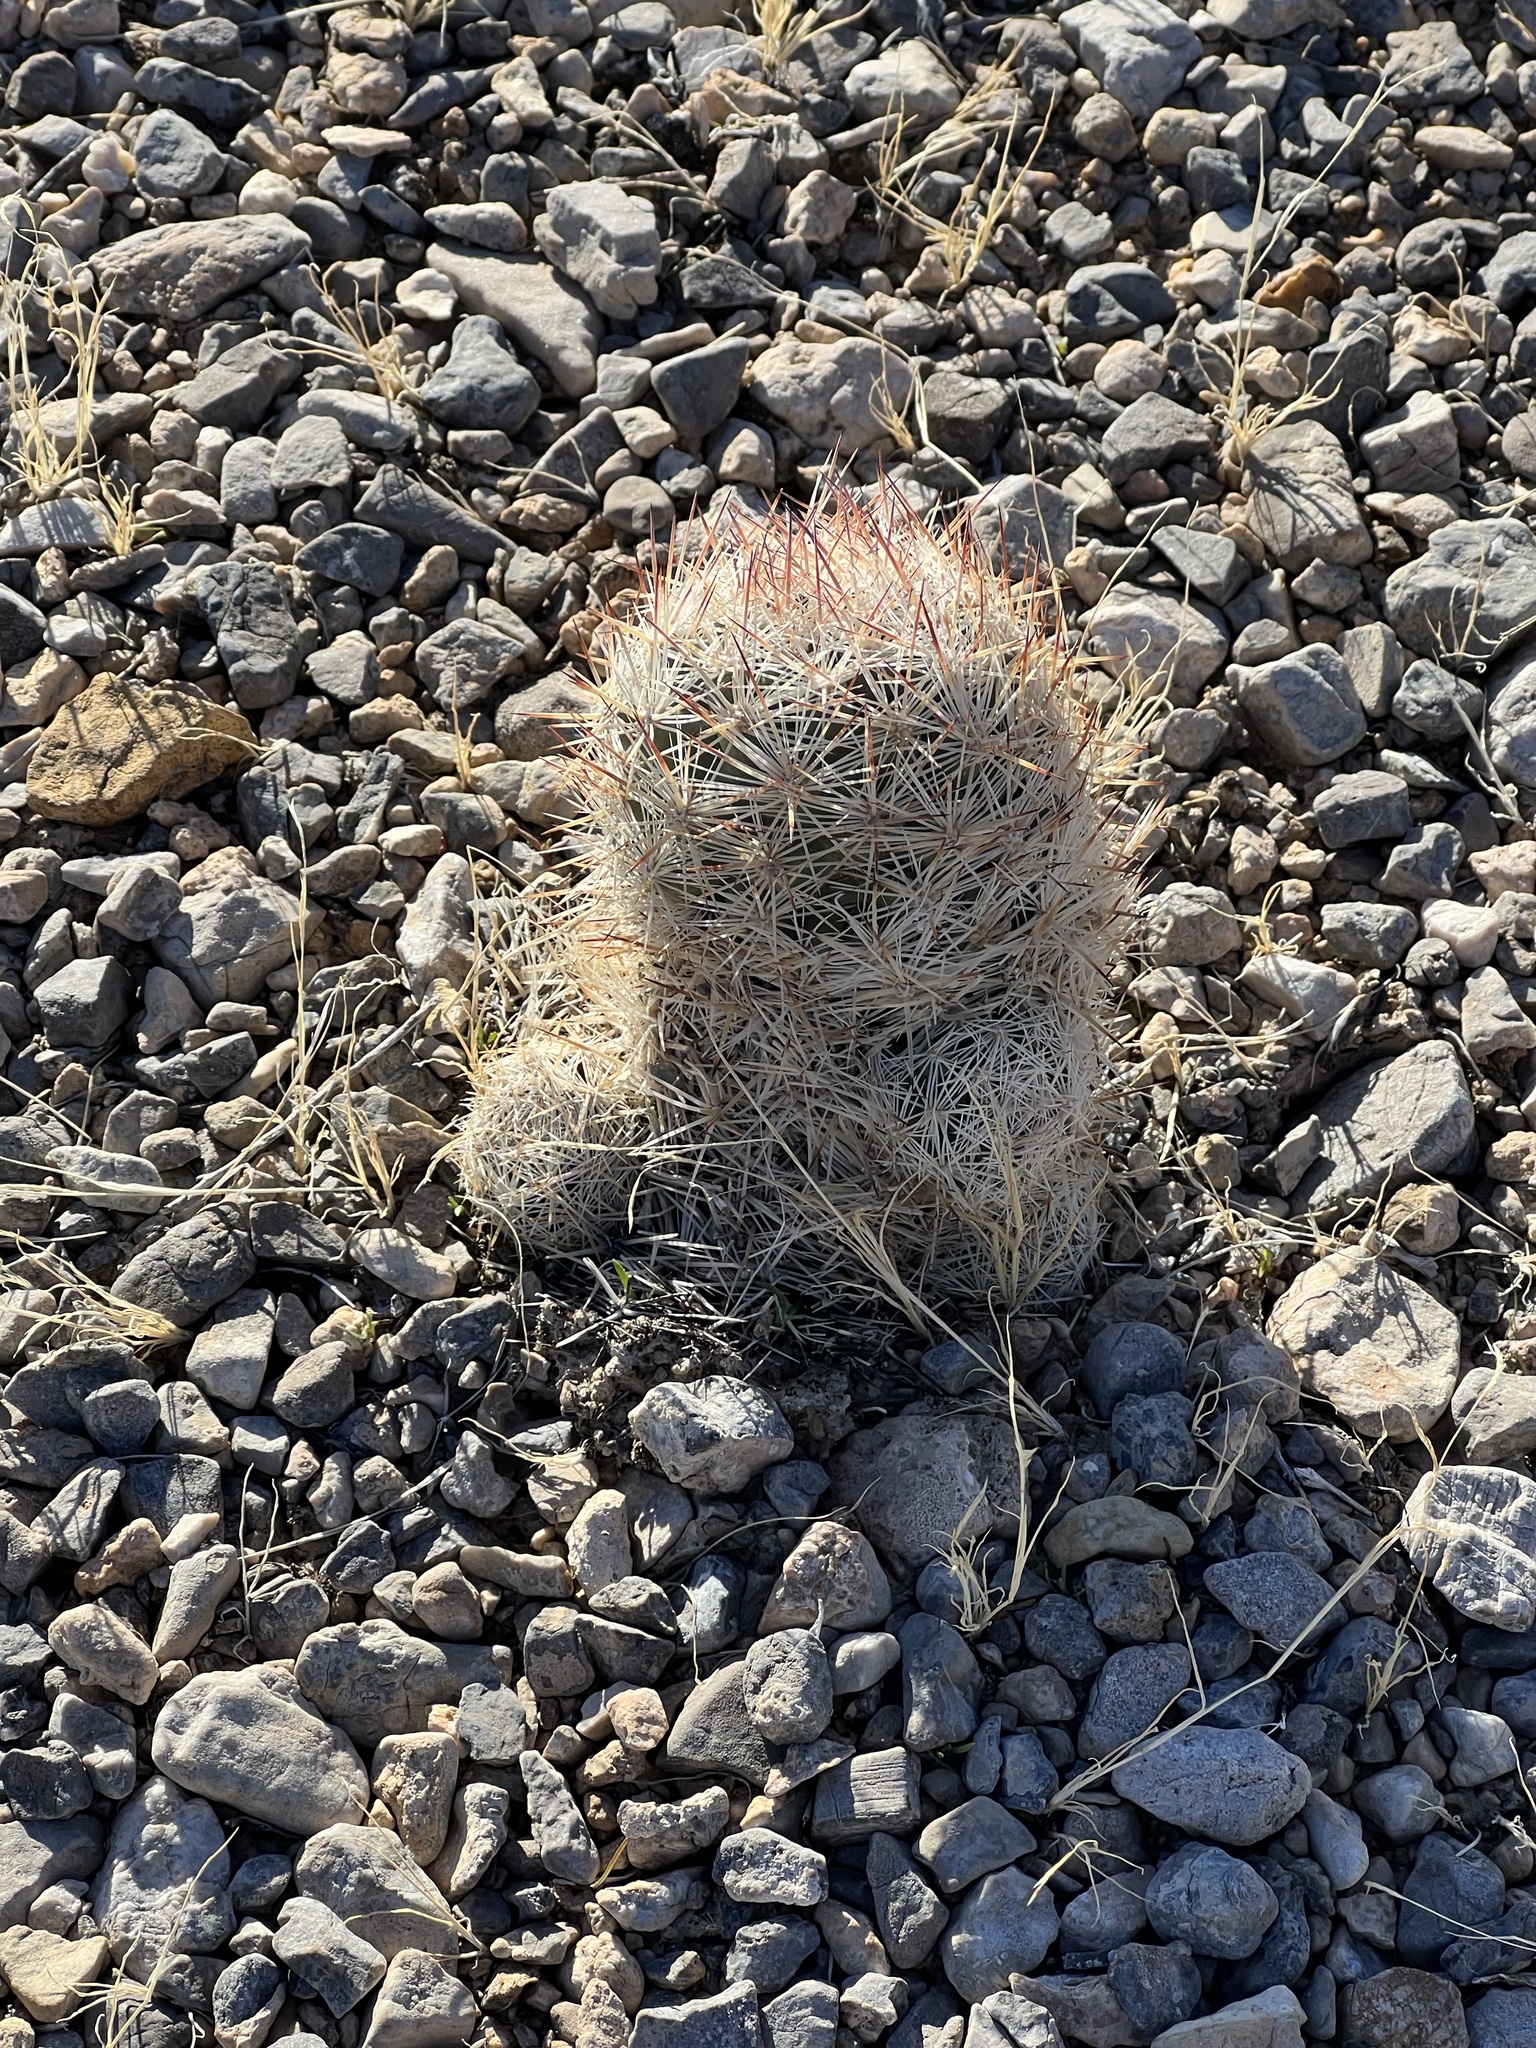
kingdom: Plantae
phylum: Tracheophyta
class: Magnoliopsida
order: Caryophyllales
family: Cactaceae
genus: Pelecyphora
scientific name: Pelecyphora dasyacantha
